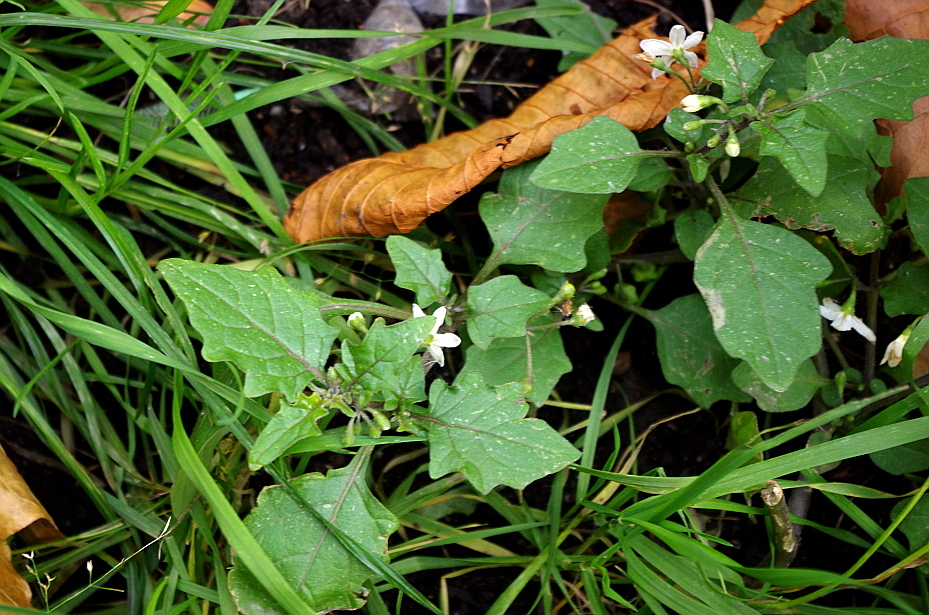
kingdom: Plantae
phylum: Tracheophyta
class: Magnoliopsida
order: Solanales
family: Solanaceae
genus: Solanum
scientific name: Solanum nigrum
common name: Black nightshade
